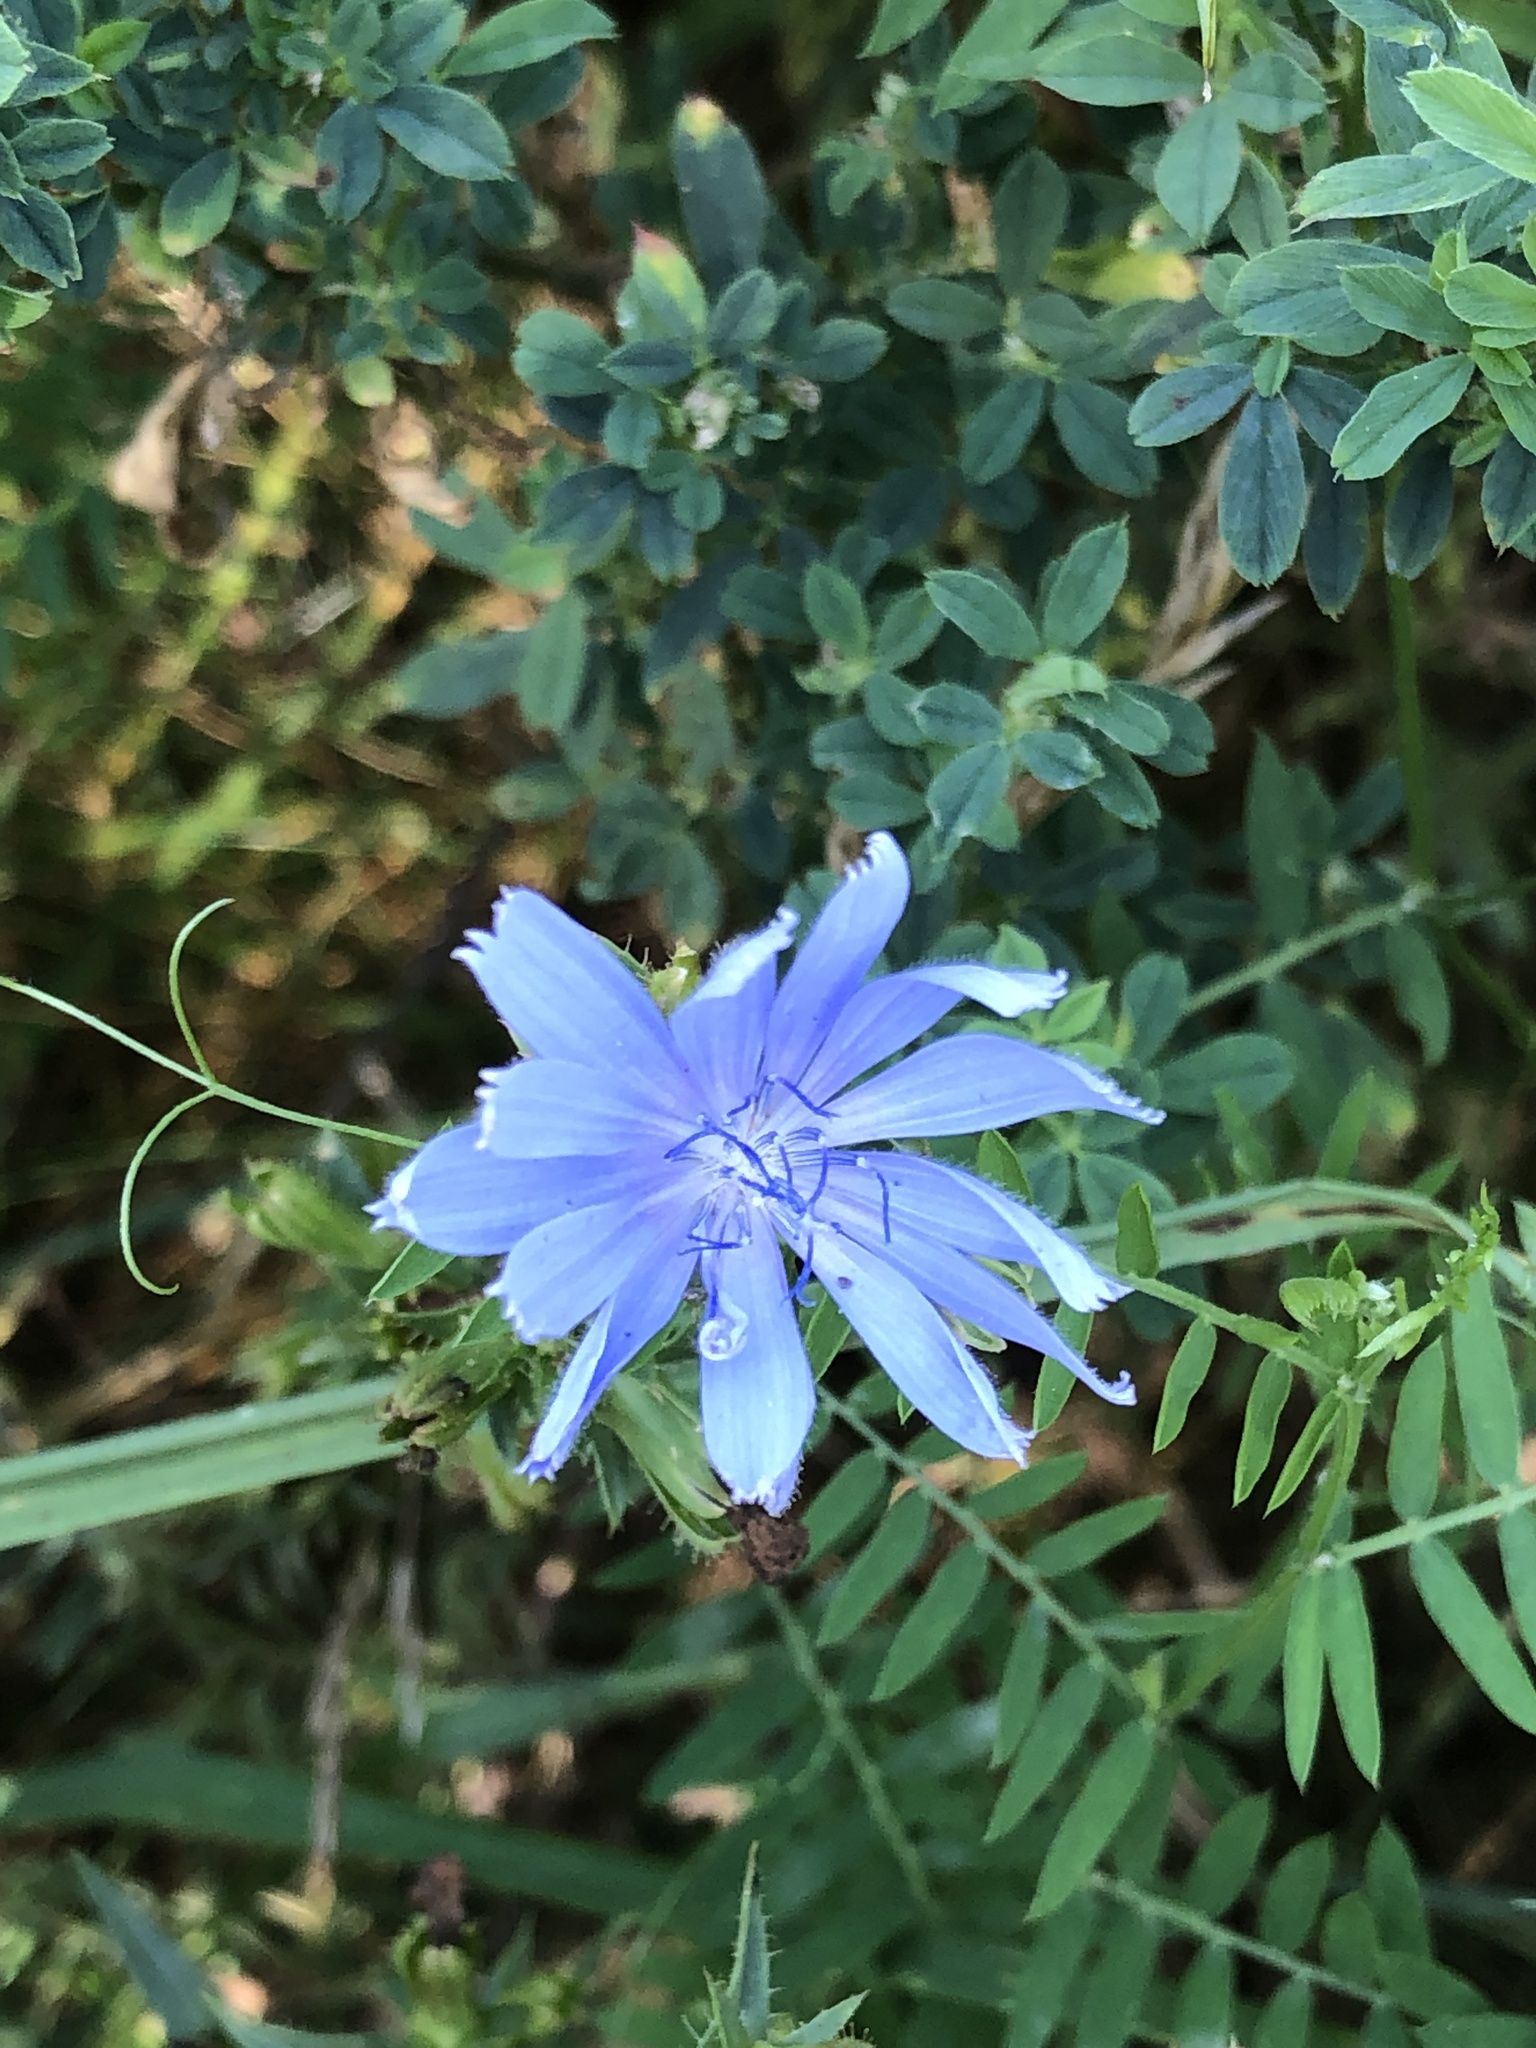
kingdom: Plantae
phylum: Tracheophyta
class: Magnoliopsida
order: Asterales
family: Asteraceae
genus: Cichorium
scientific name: Cichorium intybus
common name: Chicory
